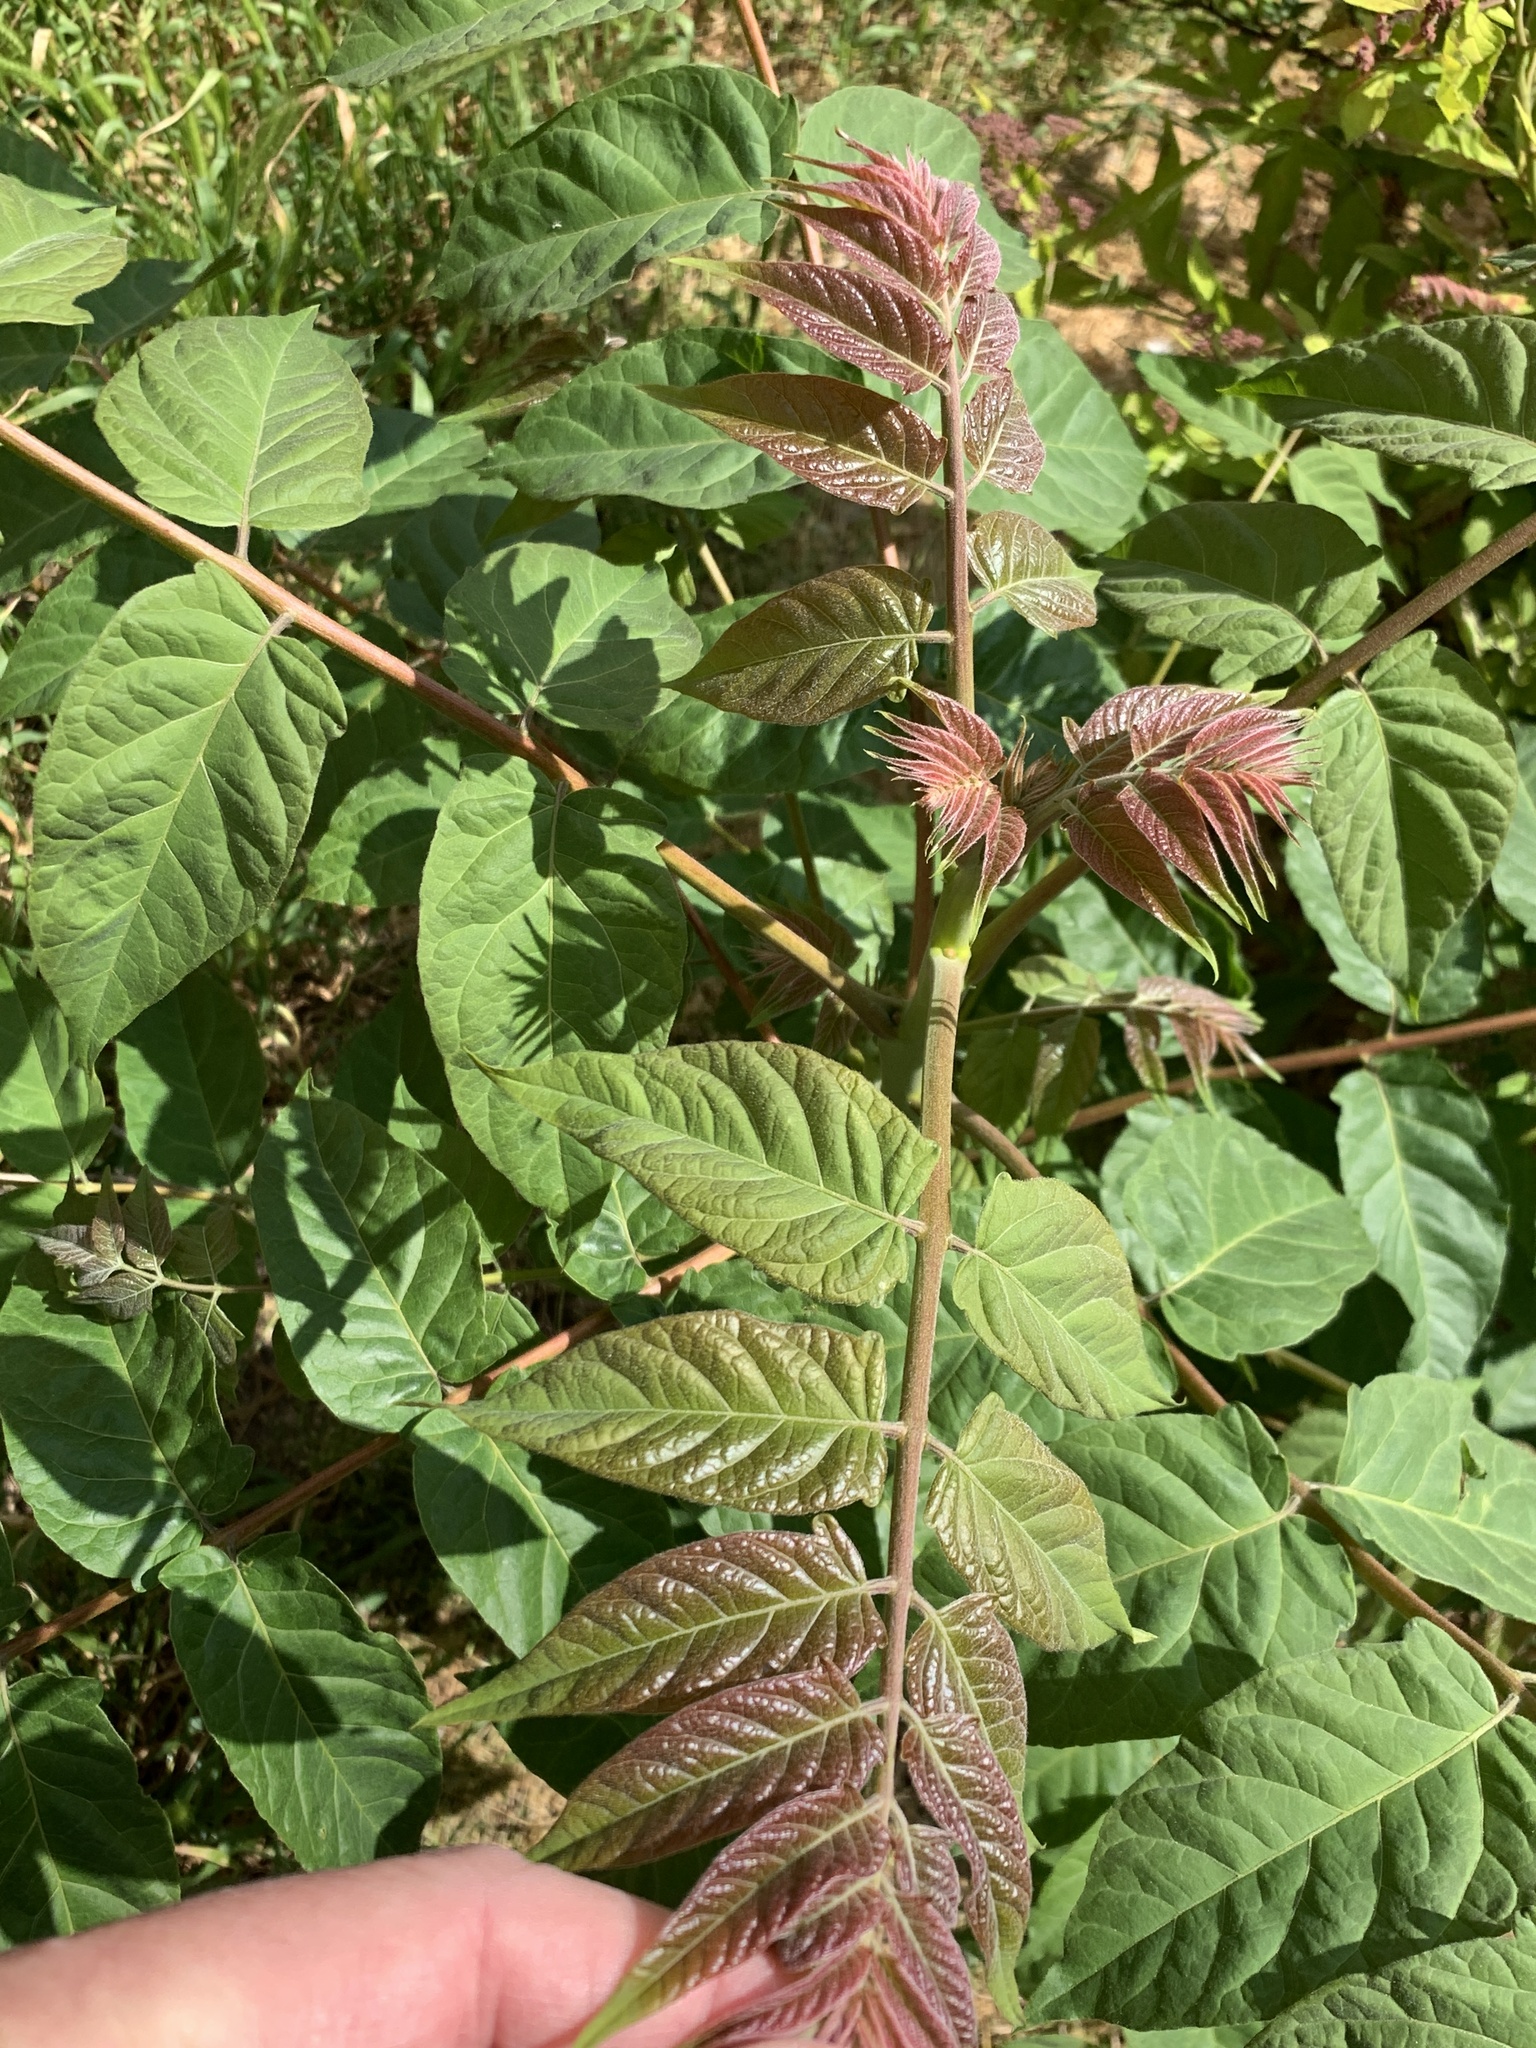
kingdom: Plantae
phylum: Tracheophyta
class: Magnoliopsida
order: Sapindales
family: Simaroubaceae
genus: Ailanthus
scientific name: Ailanthus altissima
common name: Tree-of-heaven
